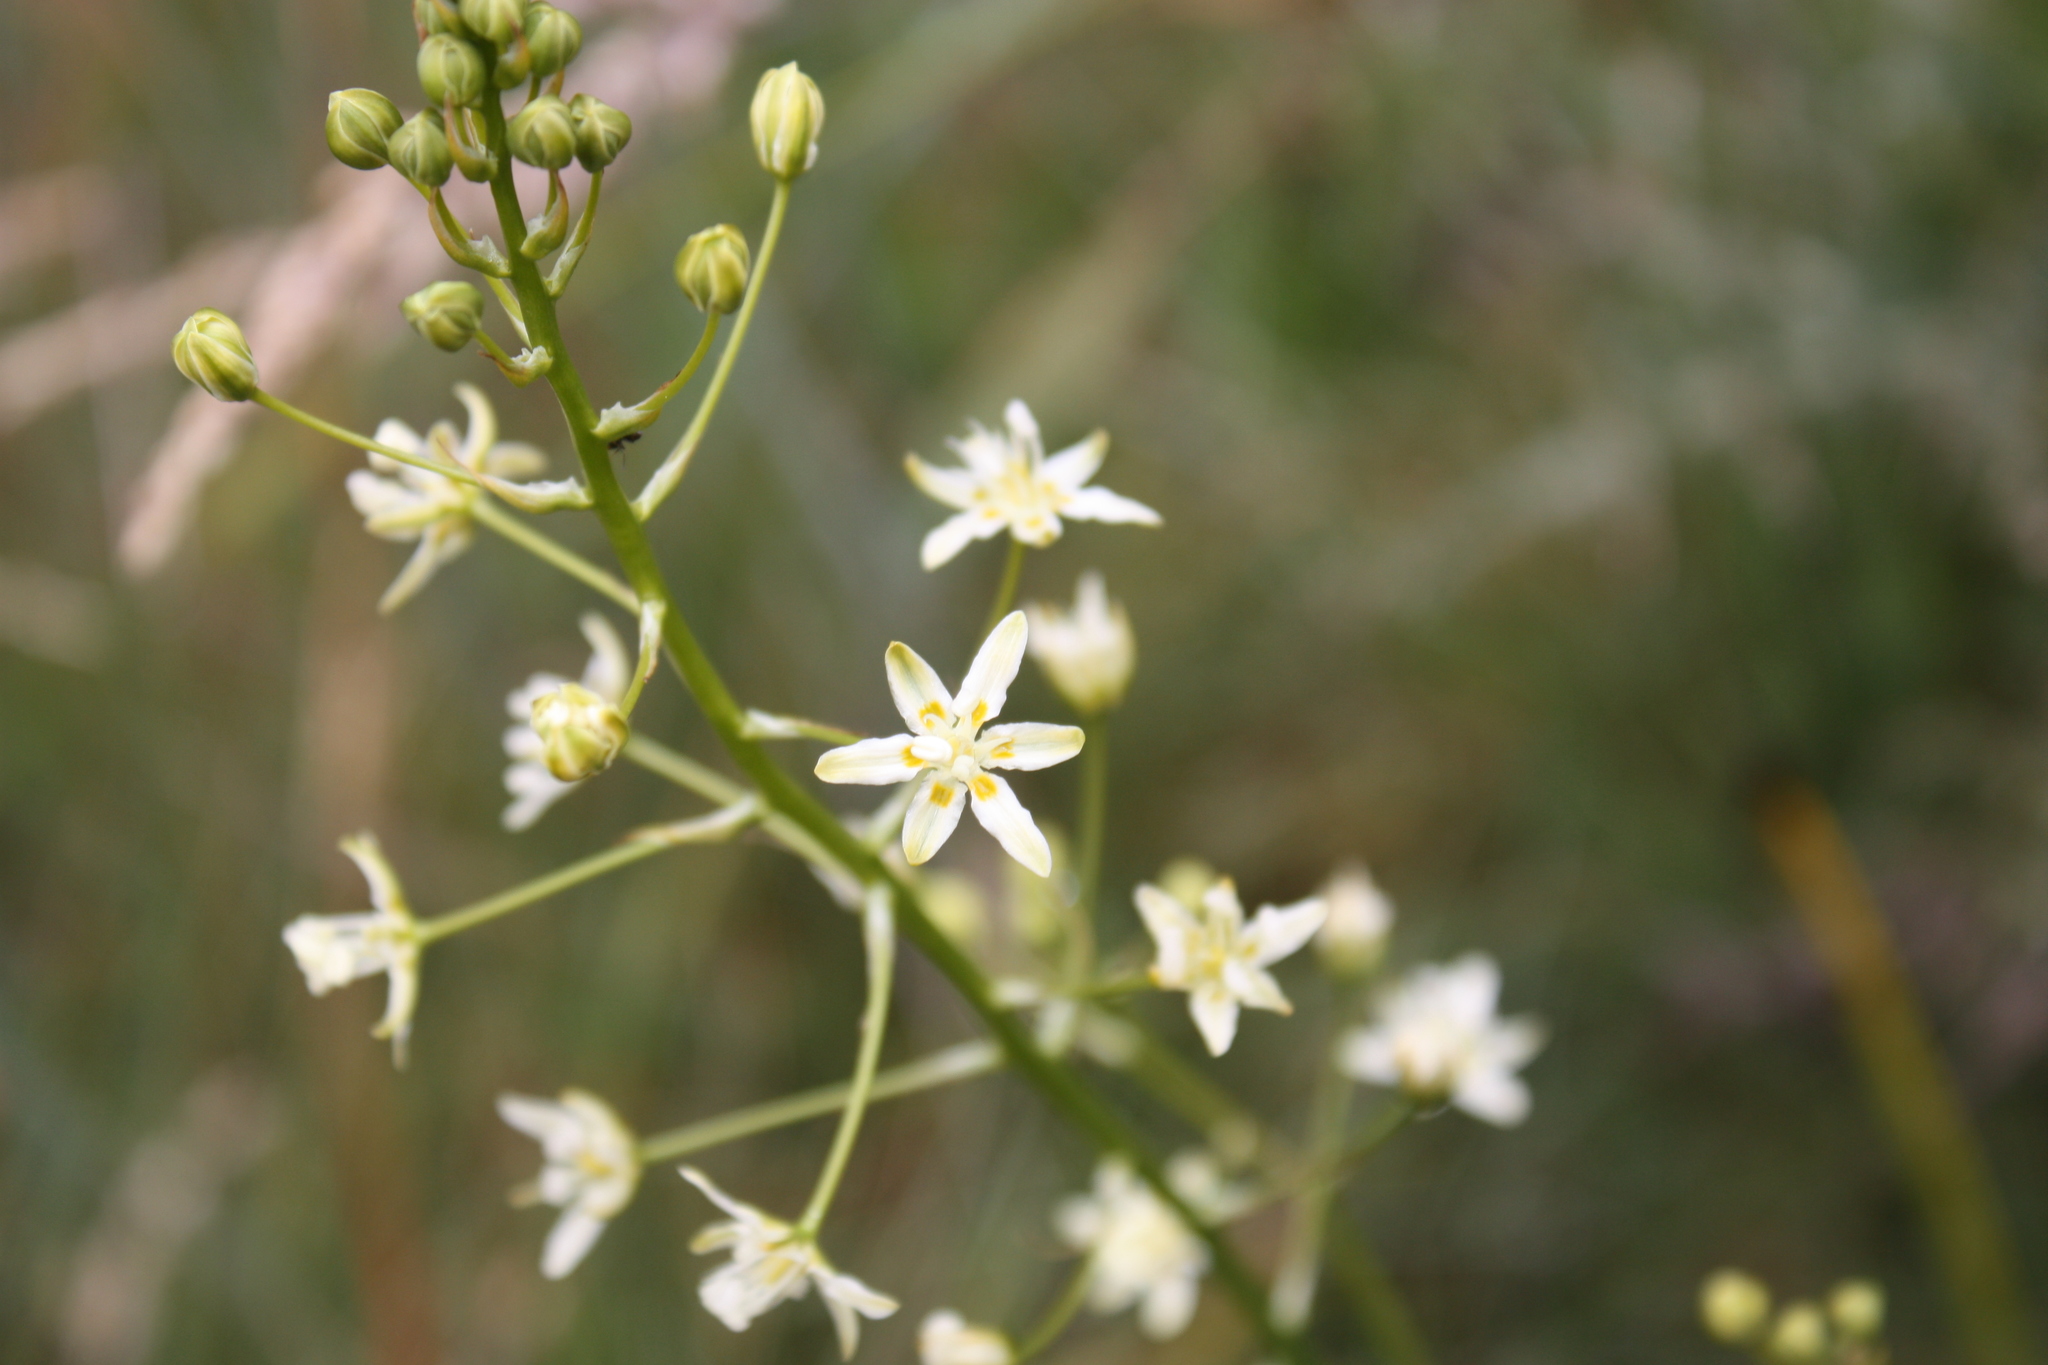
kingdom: Plantae
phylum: Tracheophyta
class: Liliopsida
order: Liliales
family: Melanthiaceae
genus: Toxicoscordion
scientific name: Toxicoscordion fontanum
